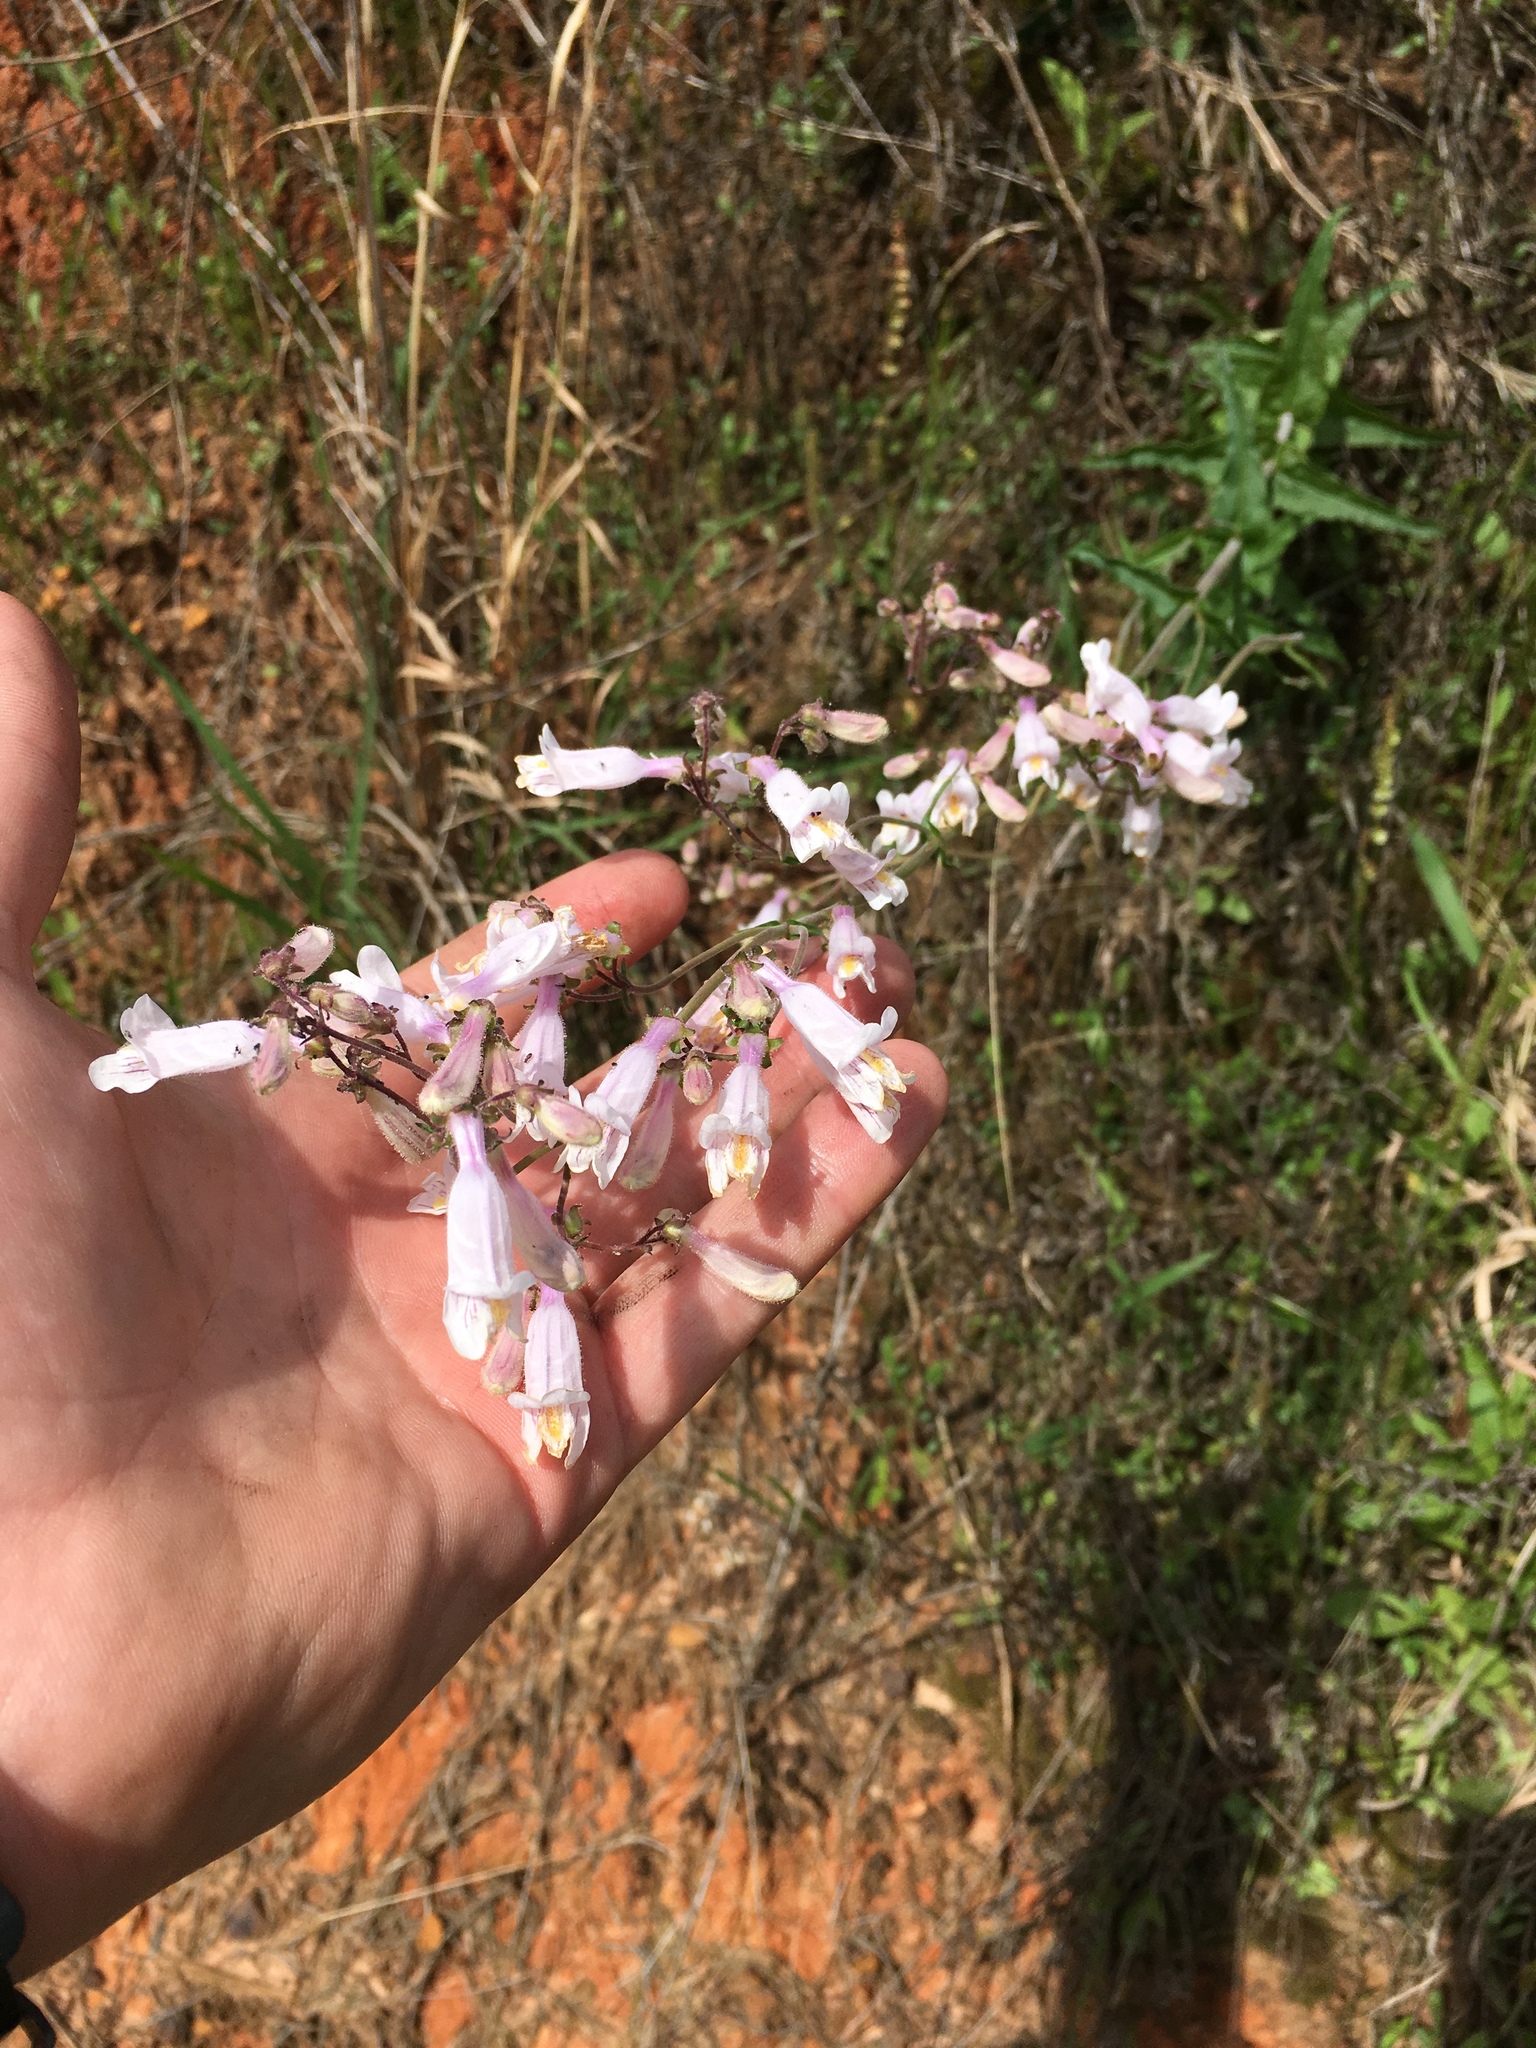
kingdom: Plantae
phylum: Tracheophyta
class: Magnoliopsida
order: Lamiales
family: Plantaginaceae
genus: Penstemon
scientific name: Penstemon laxiflorus
